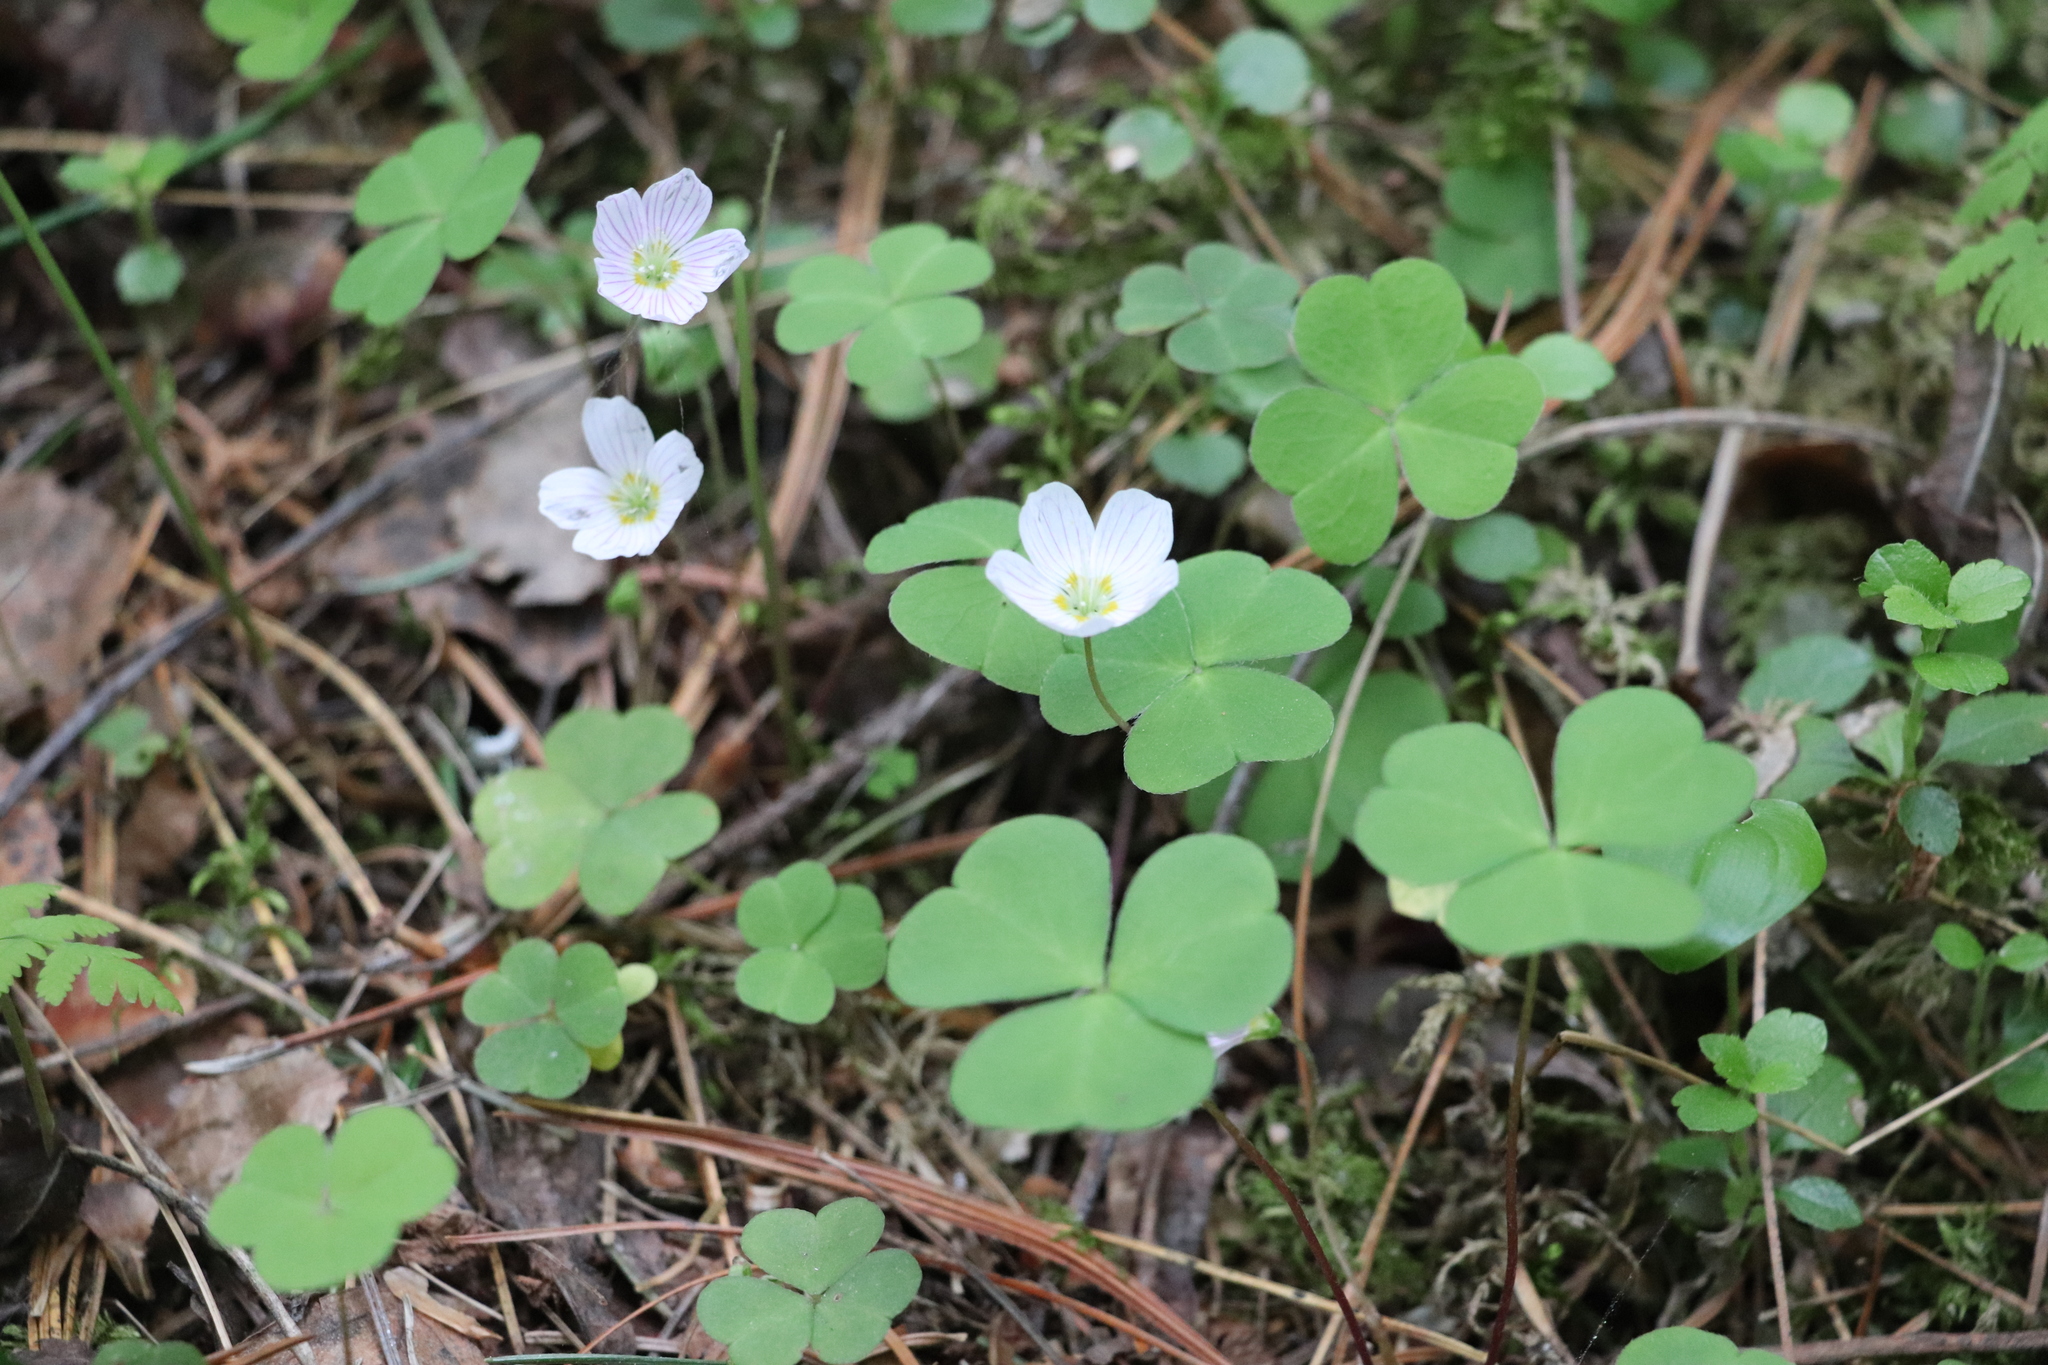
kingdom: Plantae
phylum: Tracheophyta
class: Magnoliopsida
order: Oxalidales
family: Oxalidaceae
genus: Oxalis
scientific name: Oxalis acetosella
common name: Wood-sorrel
